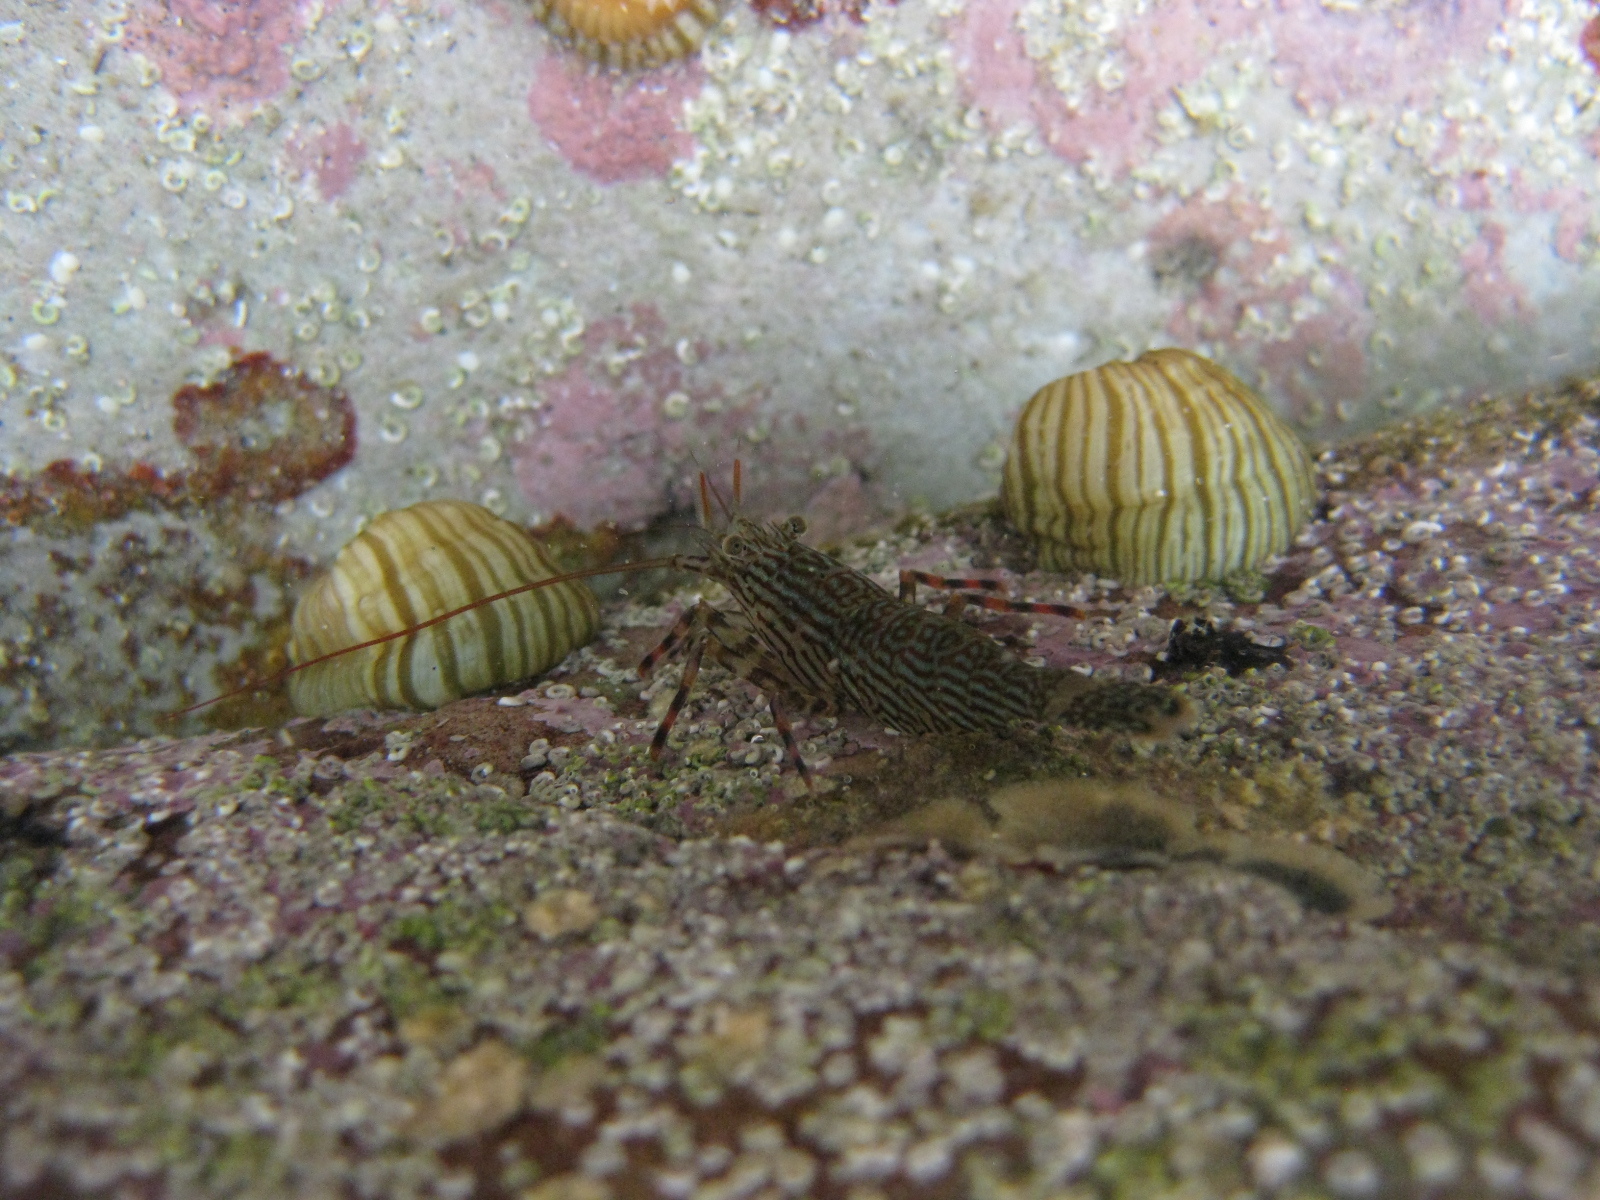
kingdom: Animalia
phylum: Arthropoda
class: Malacostraca
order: Decapoda
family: Hippolytidae
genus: Alope
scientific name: Alope spinifrons
